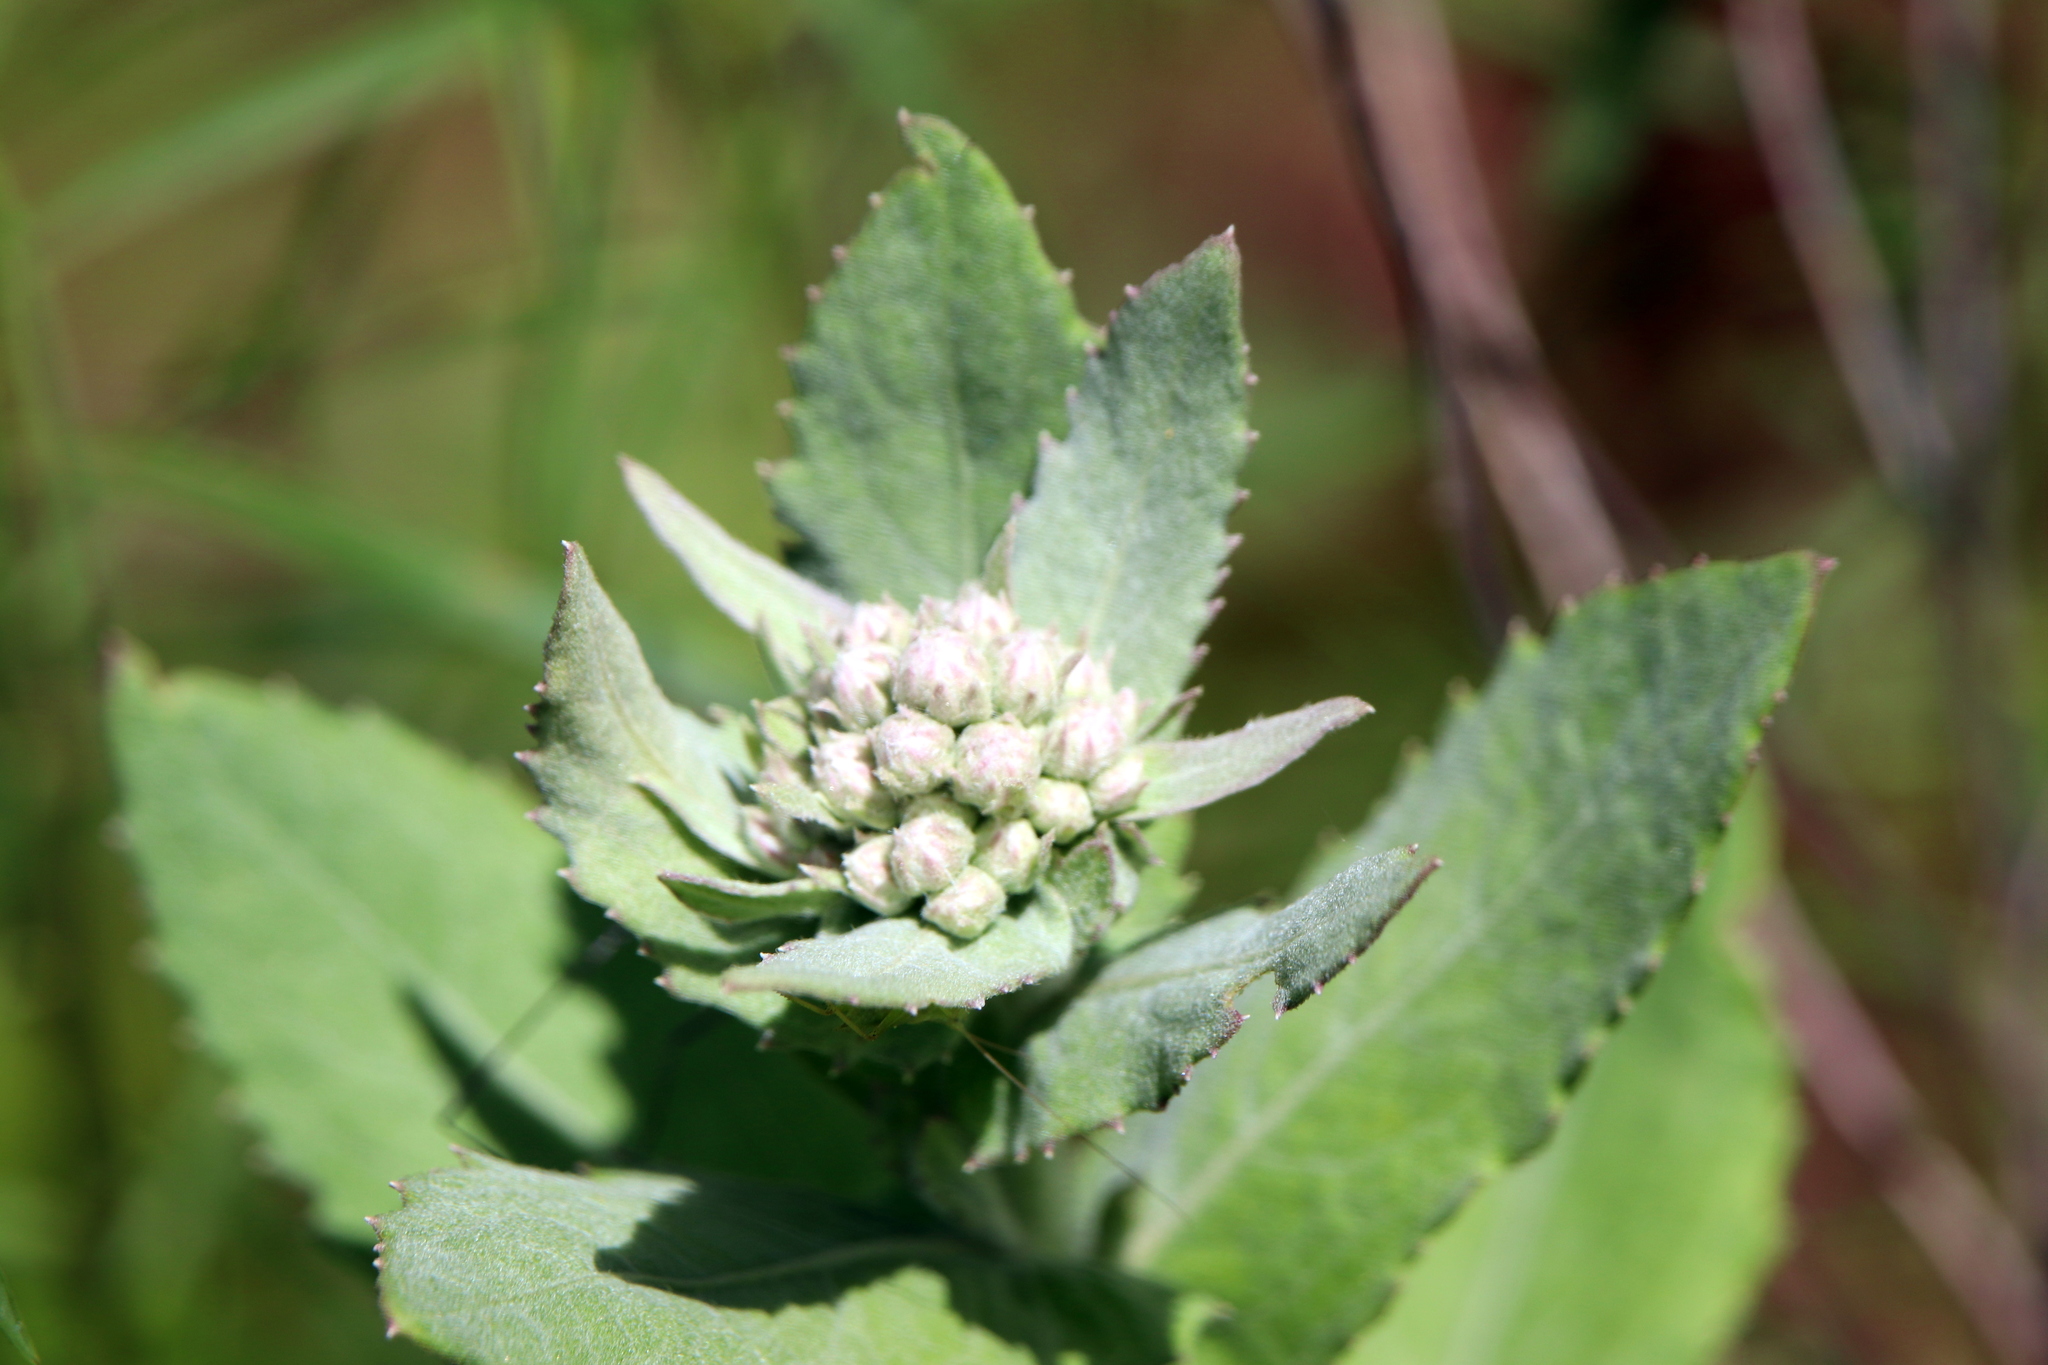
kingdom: Plantae
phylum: Tracheophyta
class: Magnoliopsida
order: Asterales
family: Asteraceae
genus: Pluchea
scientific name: Pluchea baccharis
